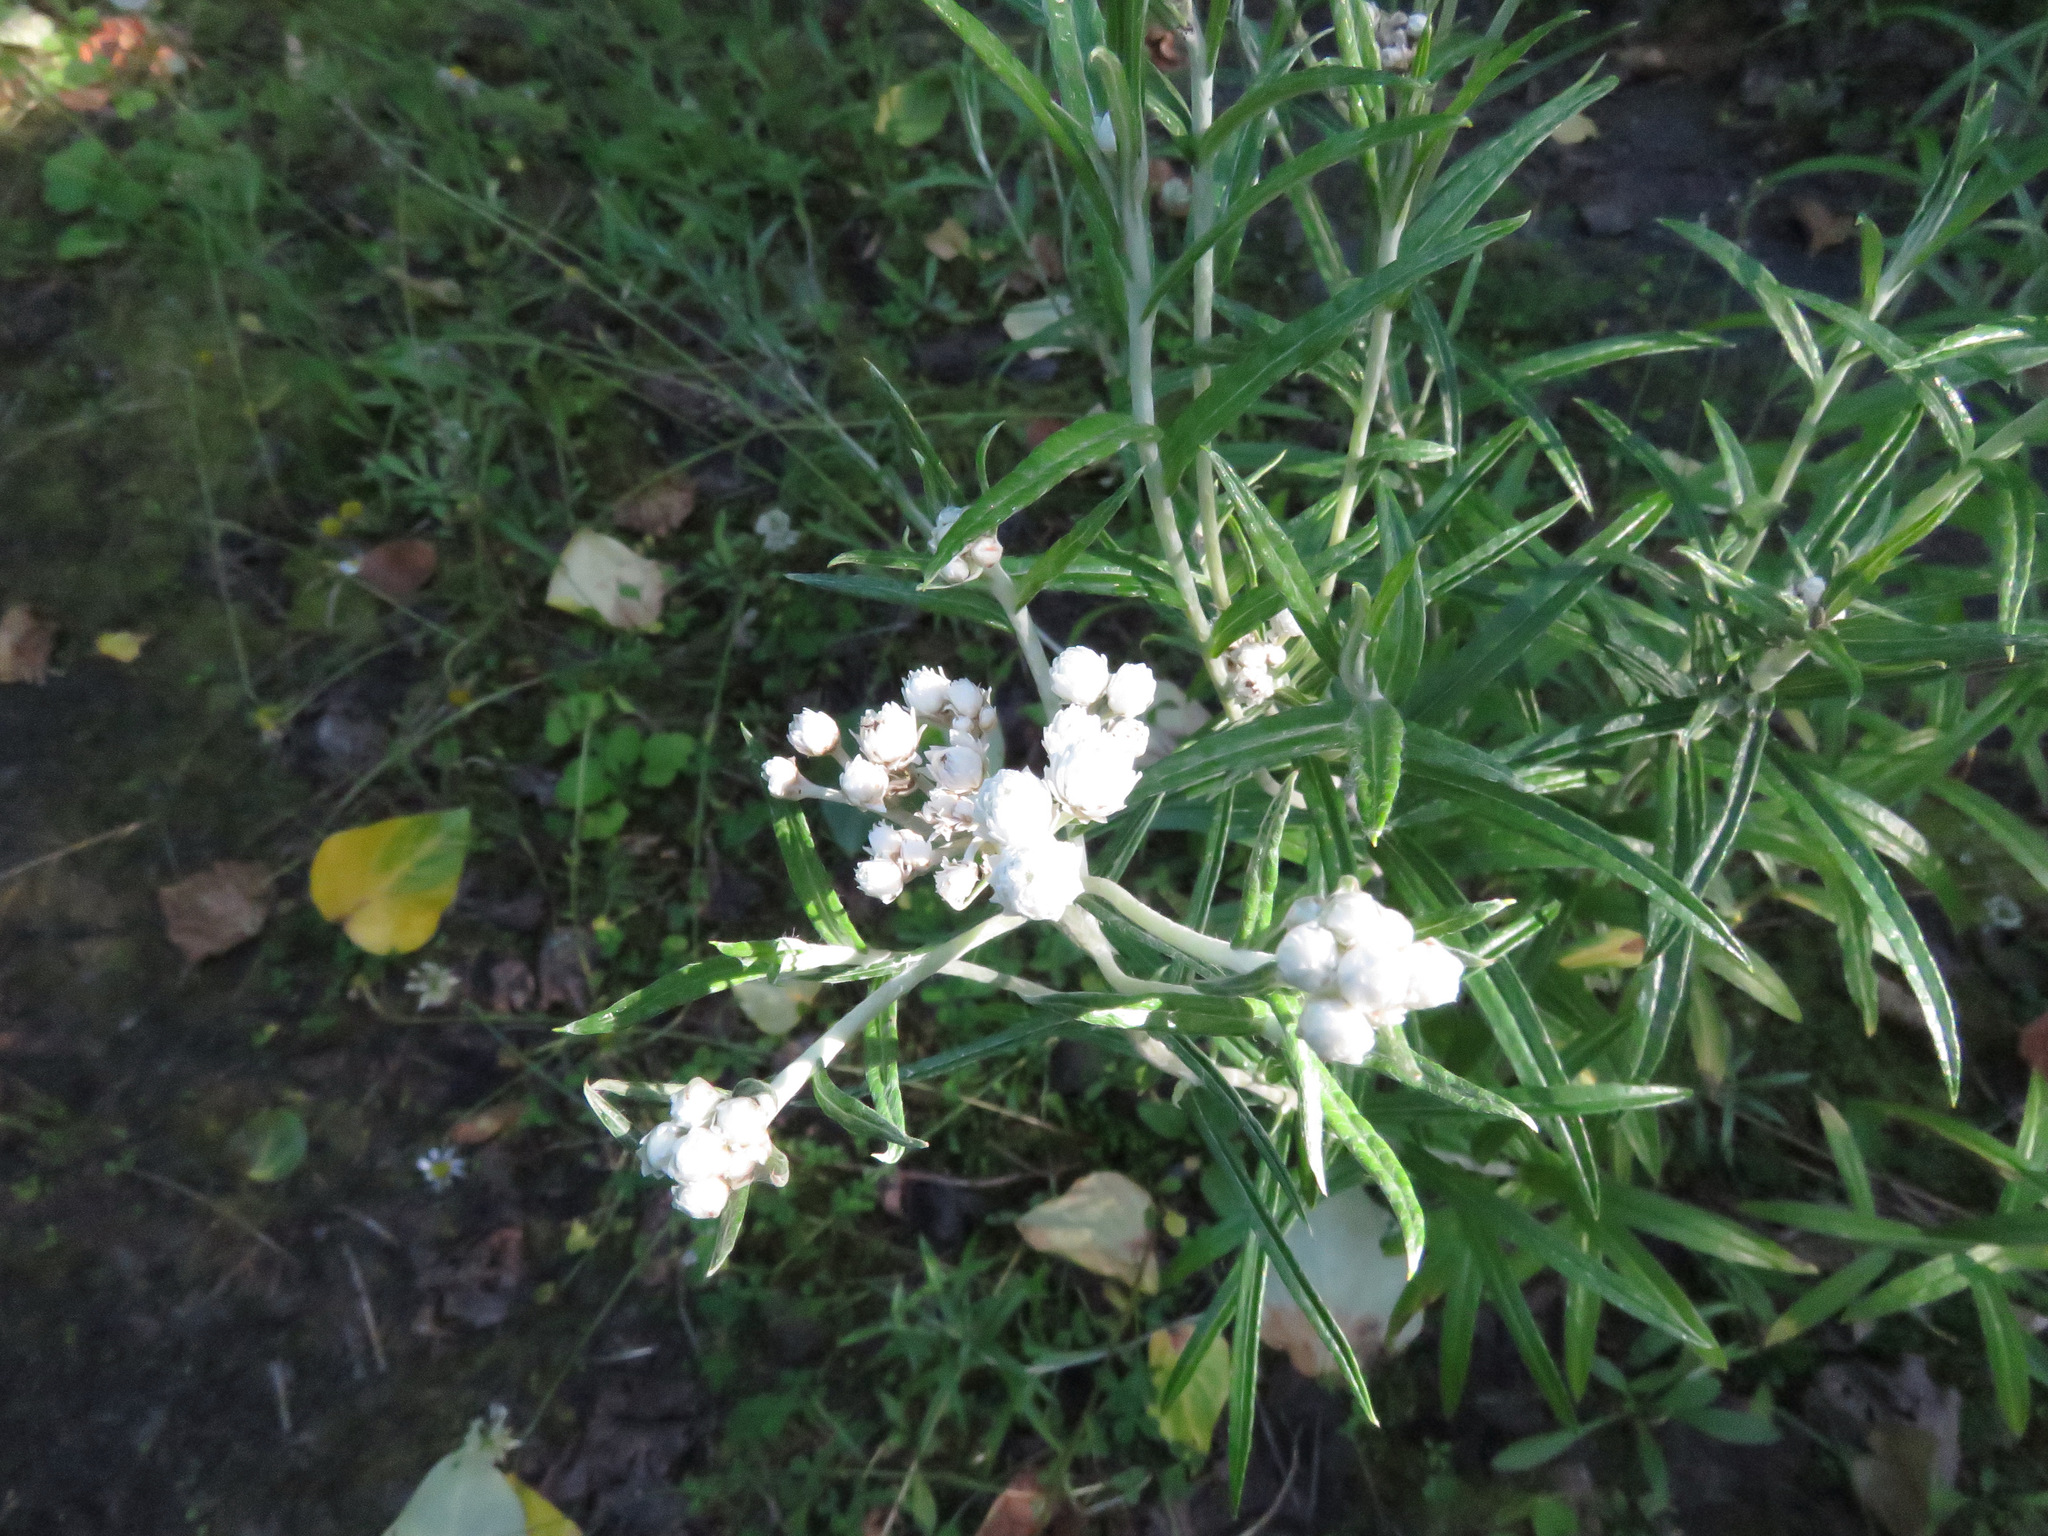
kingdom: Plantae
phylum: Tracheophyta
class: Magnoliopsida
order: Asterales
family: Asteraceae
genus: Anaphalis
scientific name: Anaphalis margaritacea
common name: Pearly everlasting
